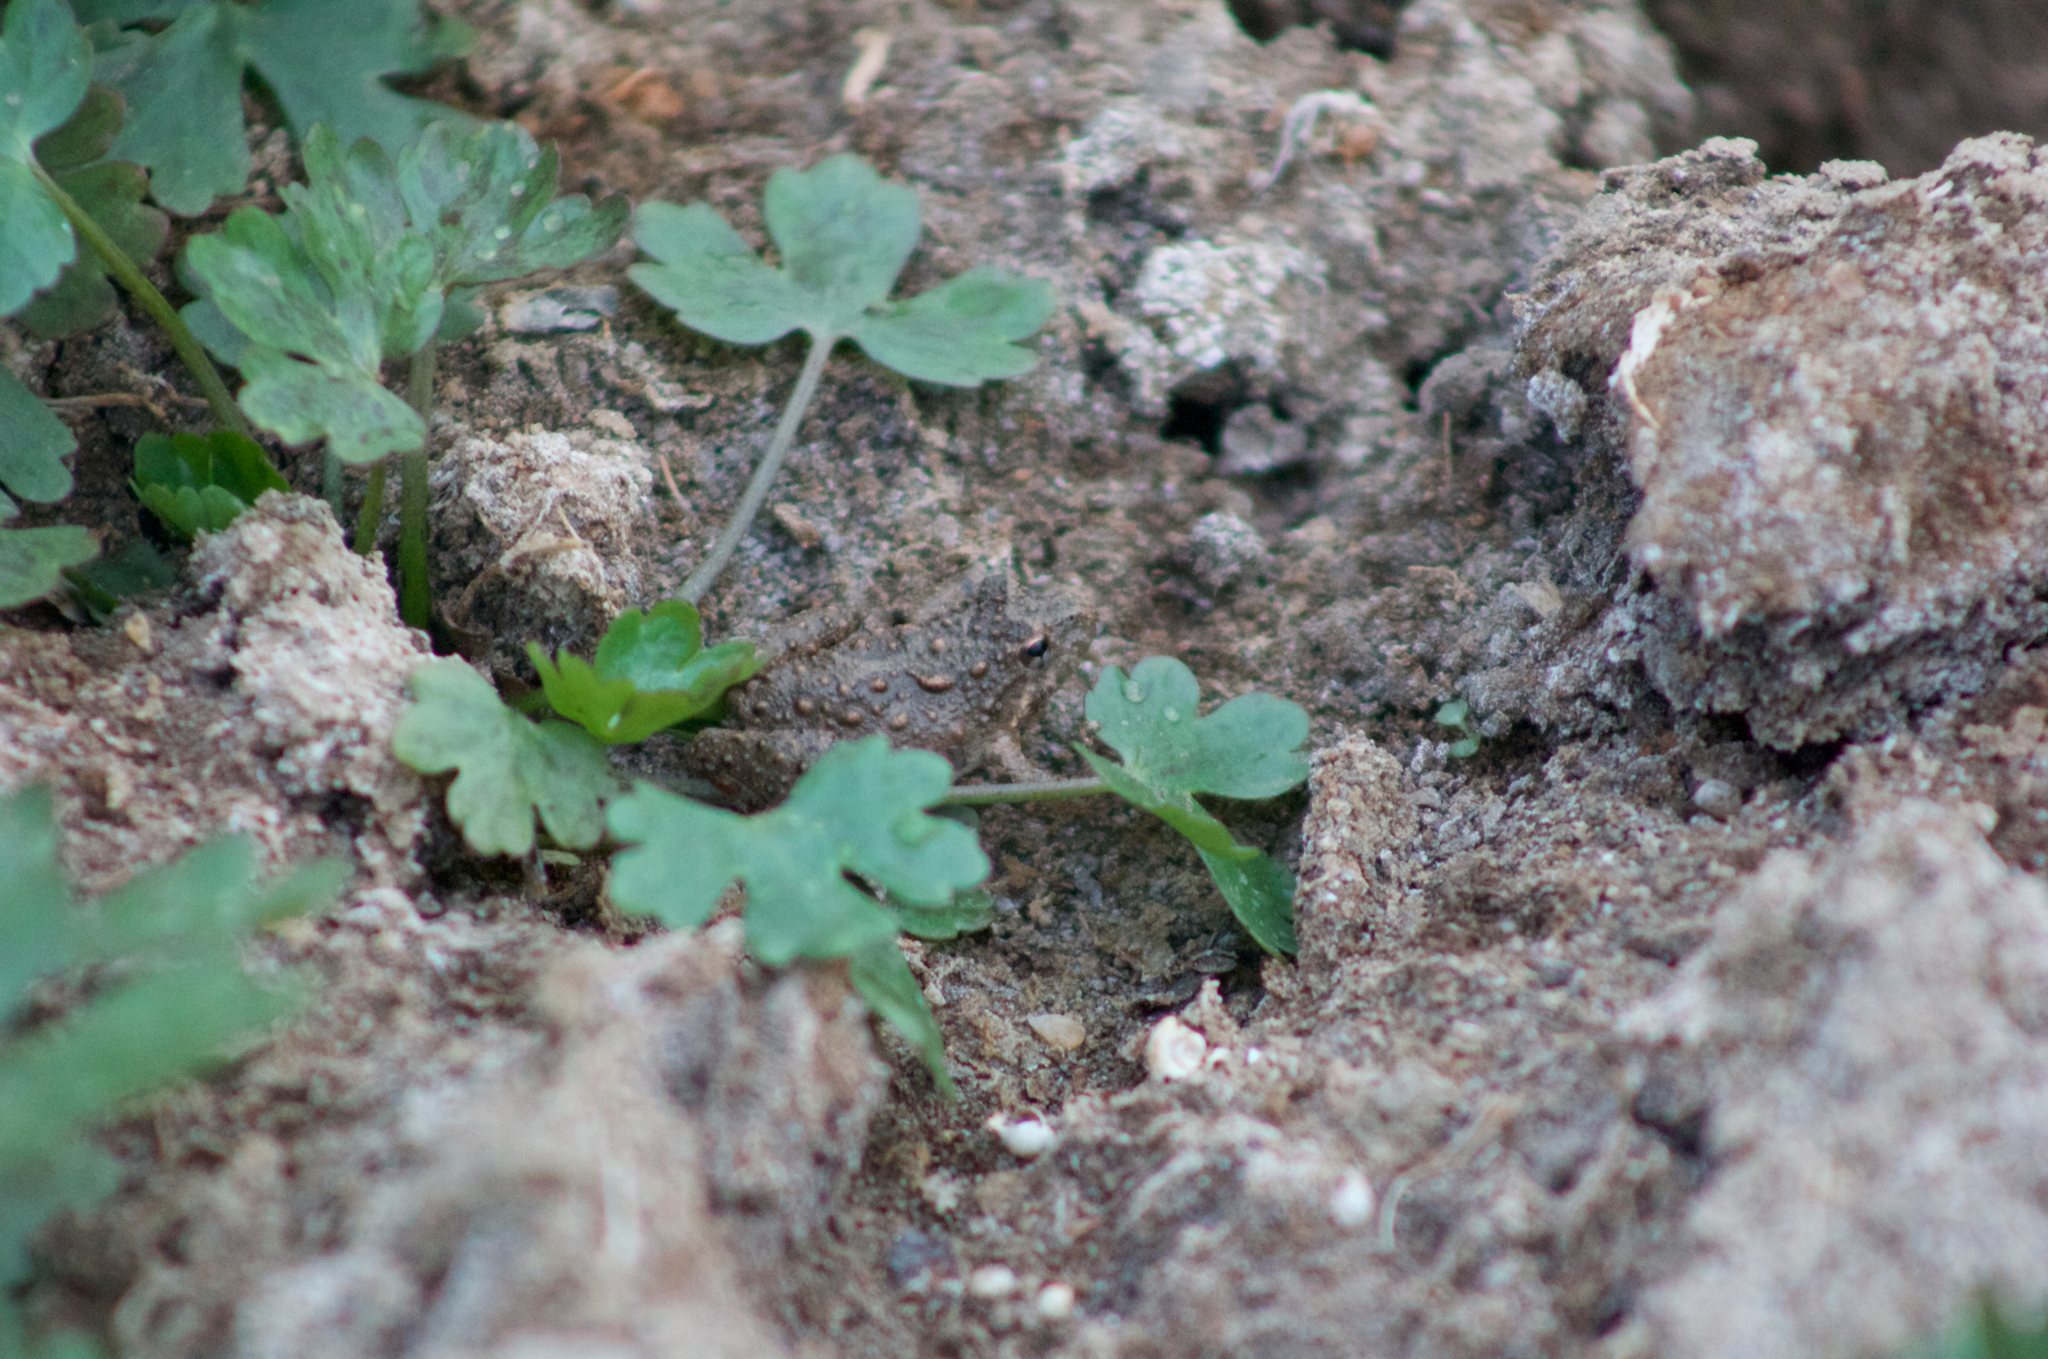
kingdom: Animalia
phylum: Chordata
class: Amphibia
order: Anura
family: Hylidae
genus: Acris
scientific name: Acris blanchardi
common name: Blanchard's cricket frog
